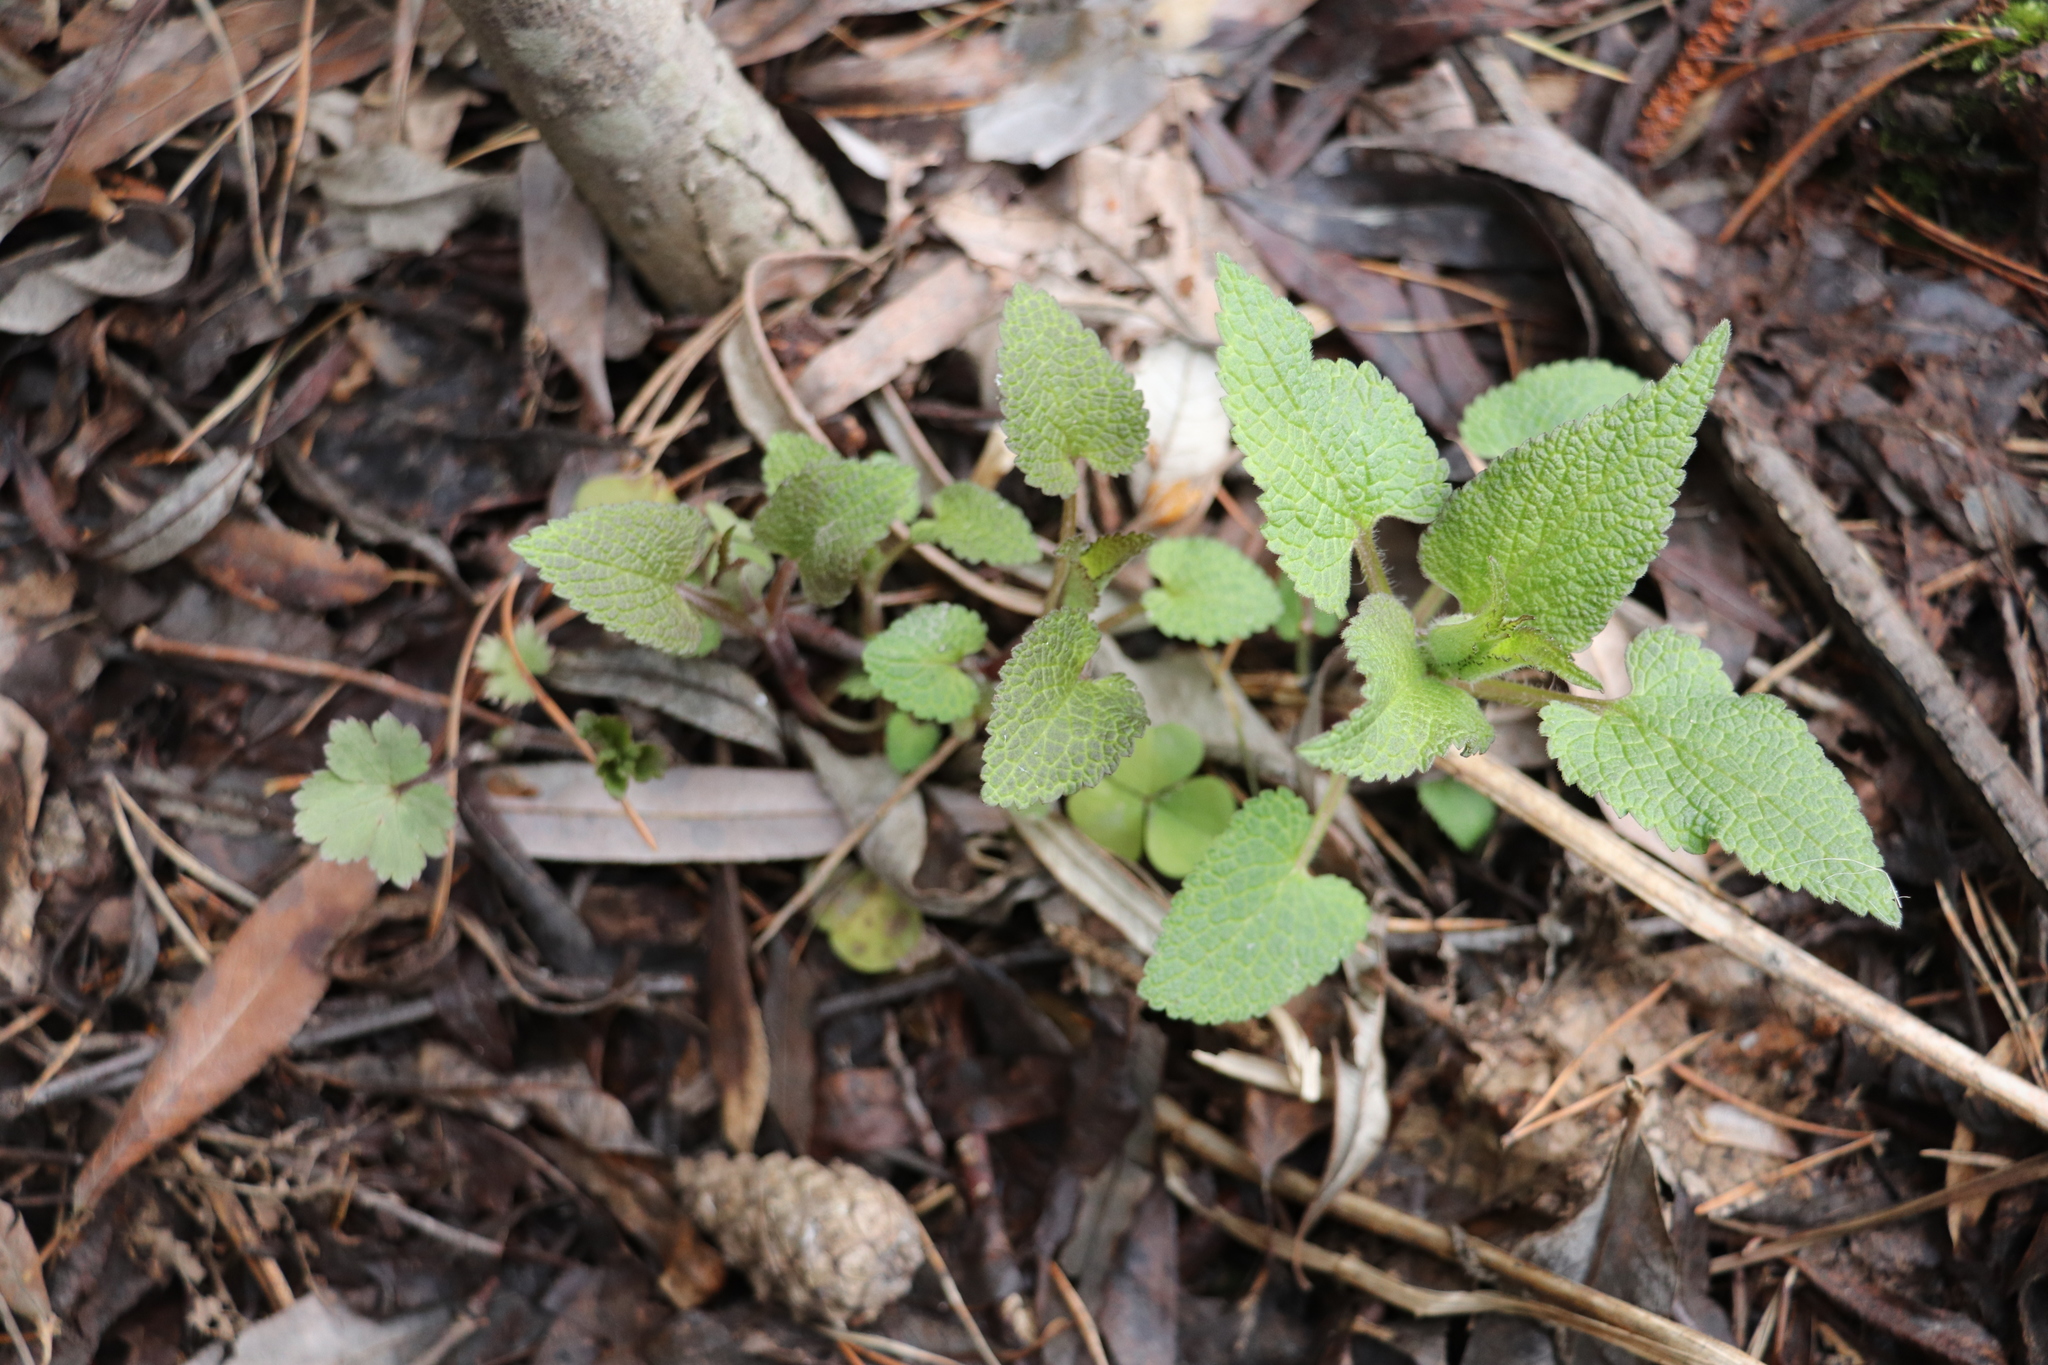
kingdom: Plantae
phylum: Tracheophyta
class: Magnoliopsida
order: Lamiales
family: Lamiaceae
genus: Lamium
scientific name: Lamium album
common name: White dead-nettle
